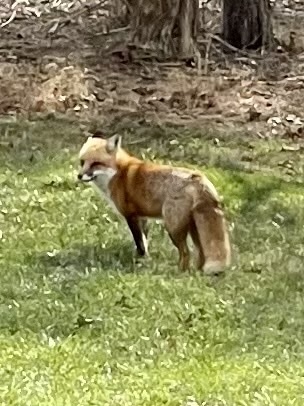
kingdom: Animalia
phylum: Chordata
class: Mammalia
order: Carnivora
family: Canidae
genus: Vulpes
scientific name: Vulpes vulpes
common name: Red fox
